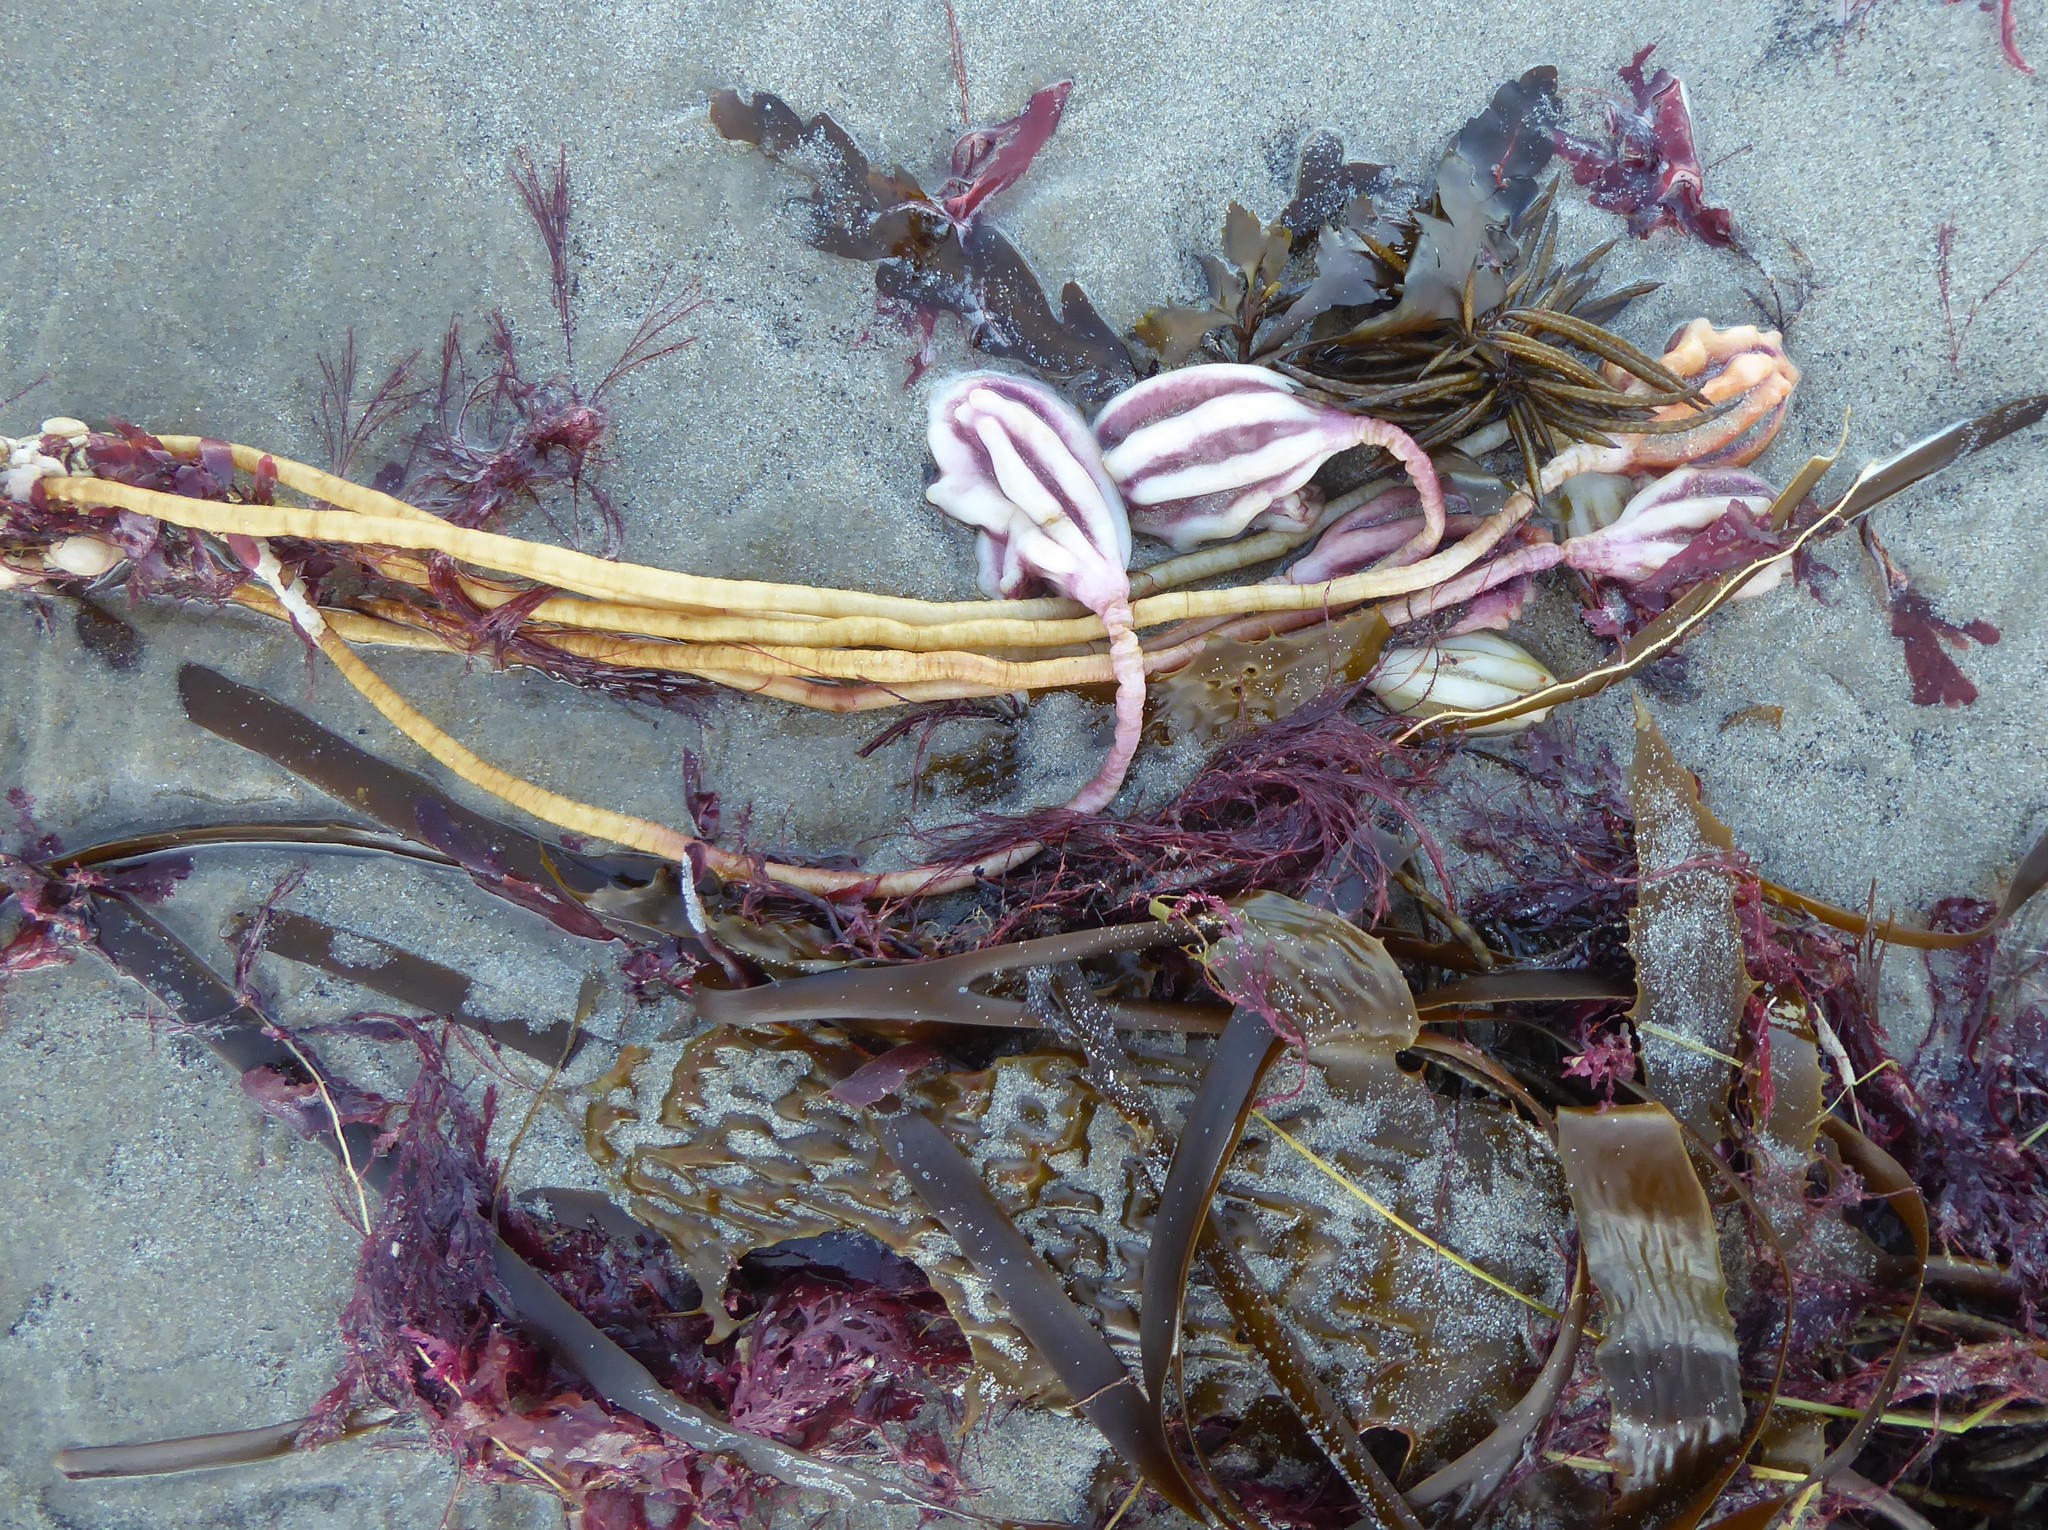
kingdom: Animalia
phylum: Chordata
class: Ascidiacea
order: Stolidobranchia
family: Pyuridae
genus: Pyura
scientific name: Pyura pachydermatina
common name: Sea tulip
